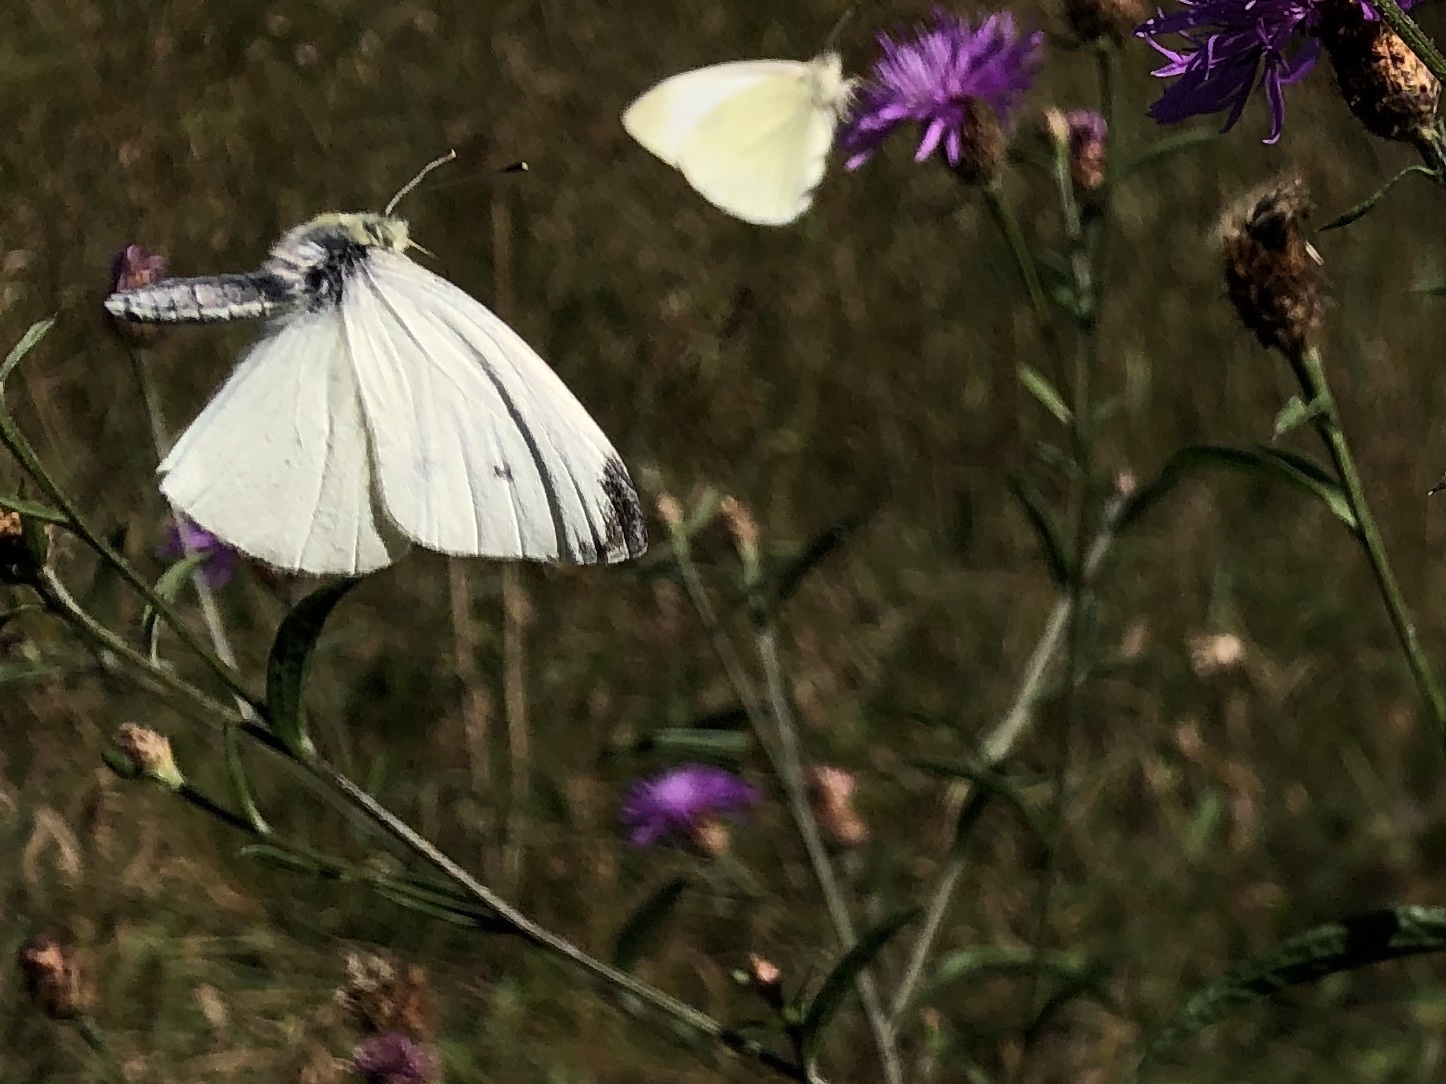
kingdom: Animalia
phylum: Arthropoda
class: Insecta
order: Lepidoptera
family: Pieridae
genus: Pieris
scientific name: Pieris rapae
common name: Small white
